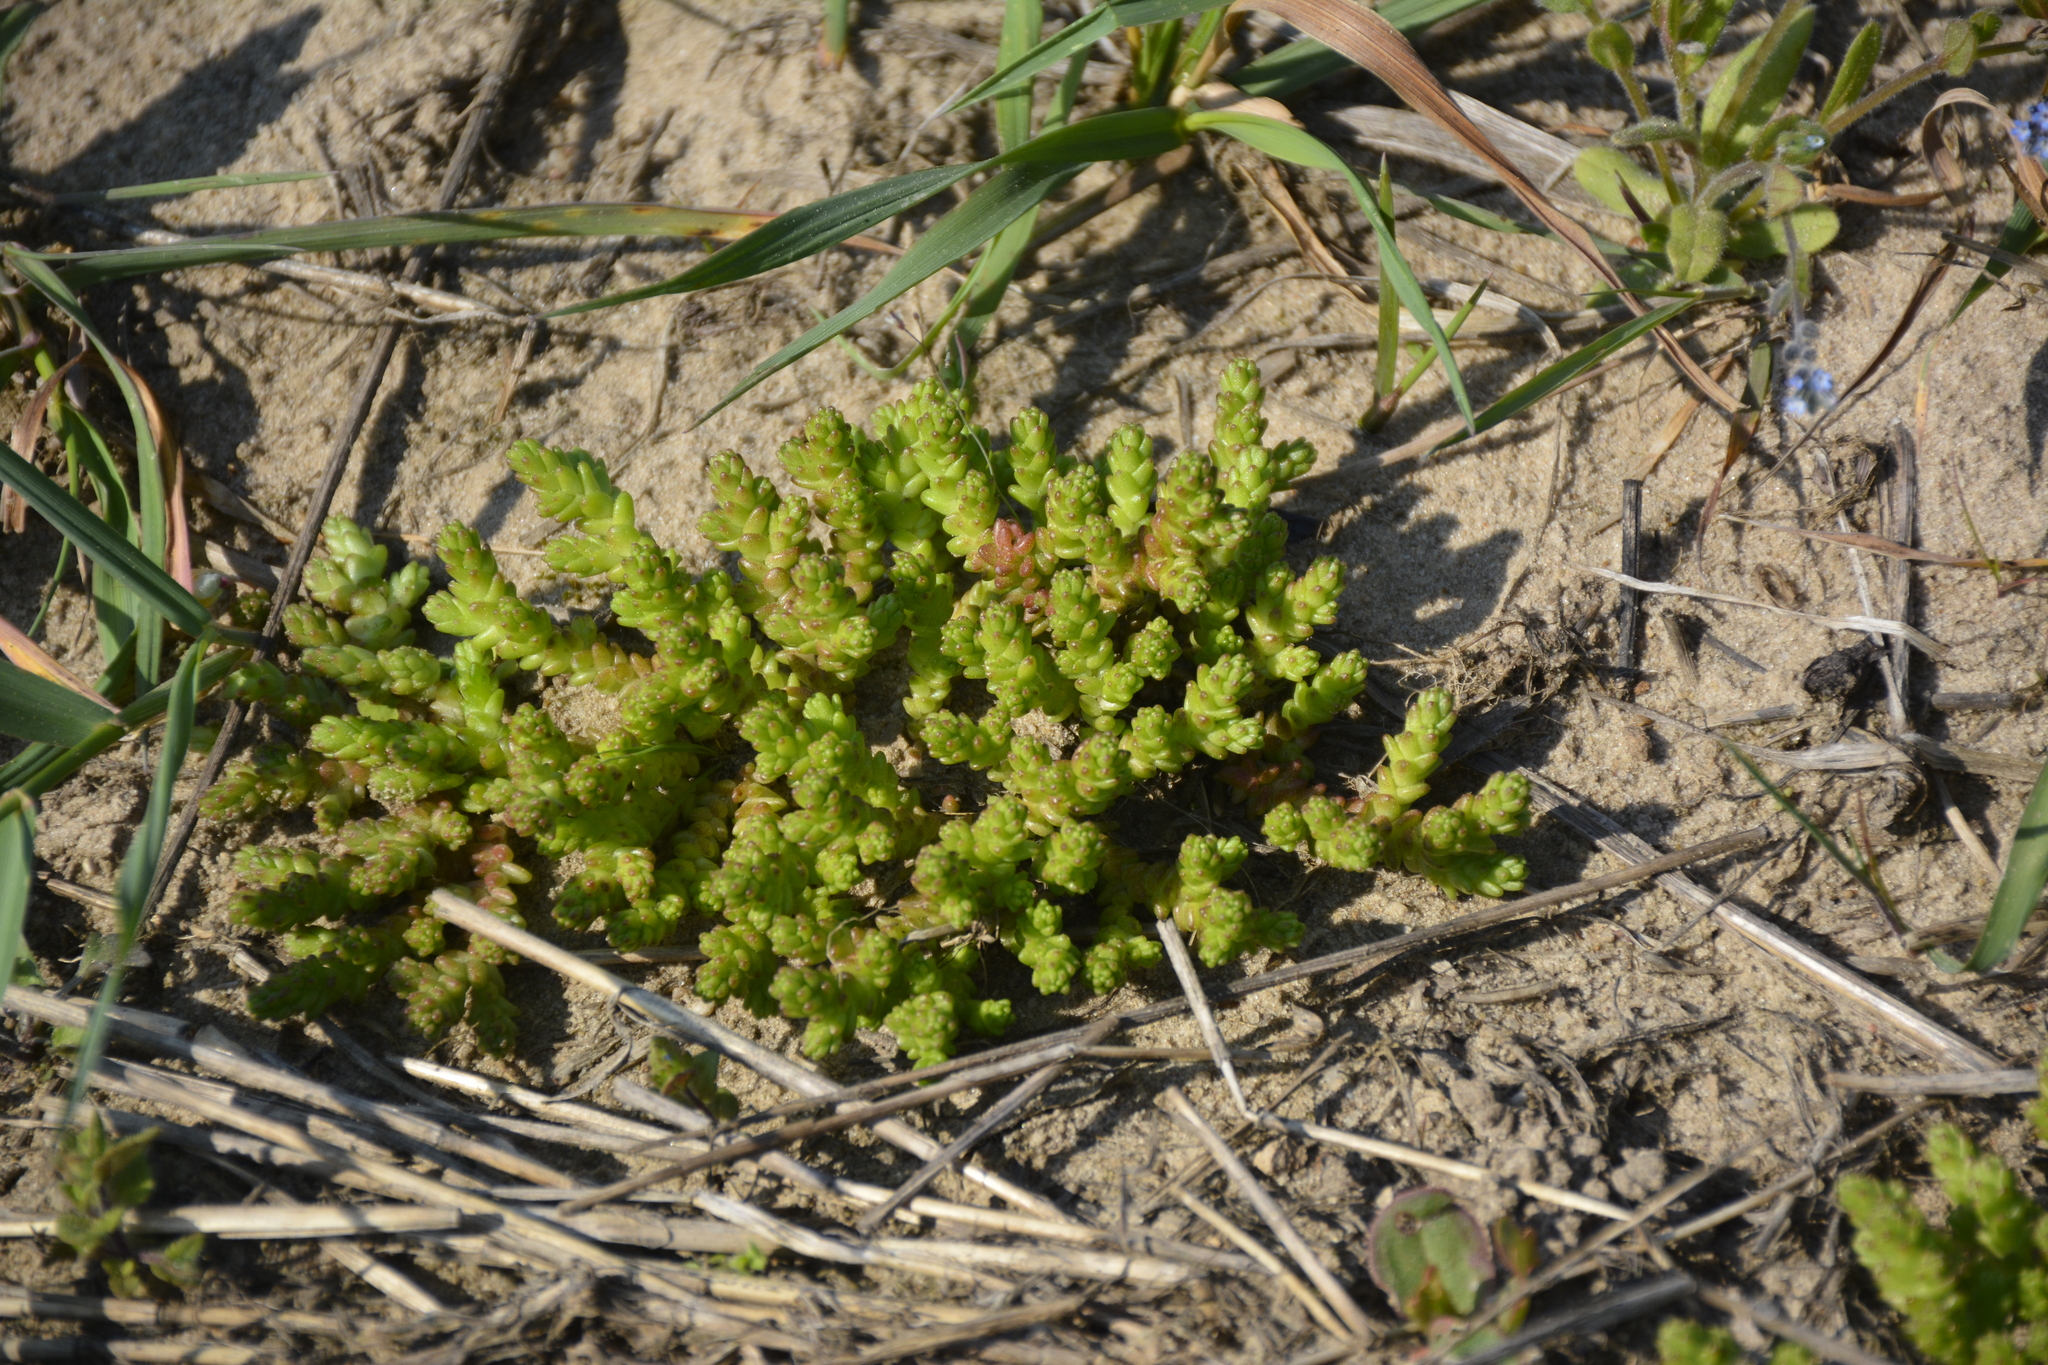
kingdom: Plantae
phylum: Tracheophyta
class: Magnoliopsida
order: Saxifragales
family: Crassulaceae
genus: Sedum
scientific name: Sedum acre
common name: Biting stonecrop
